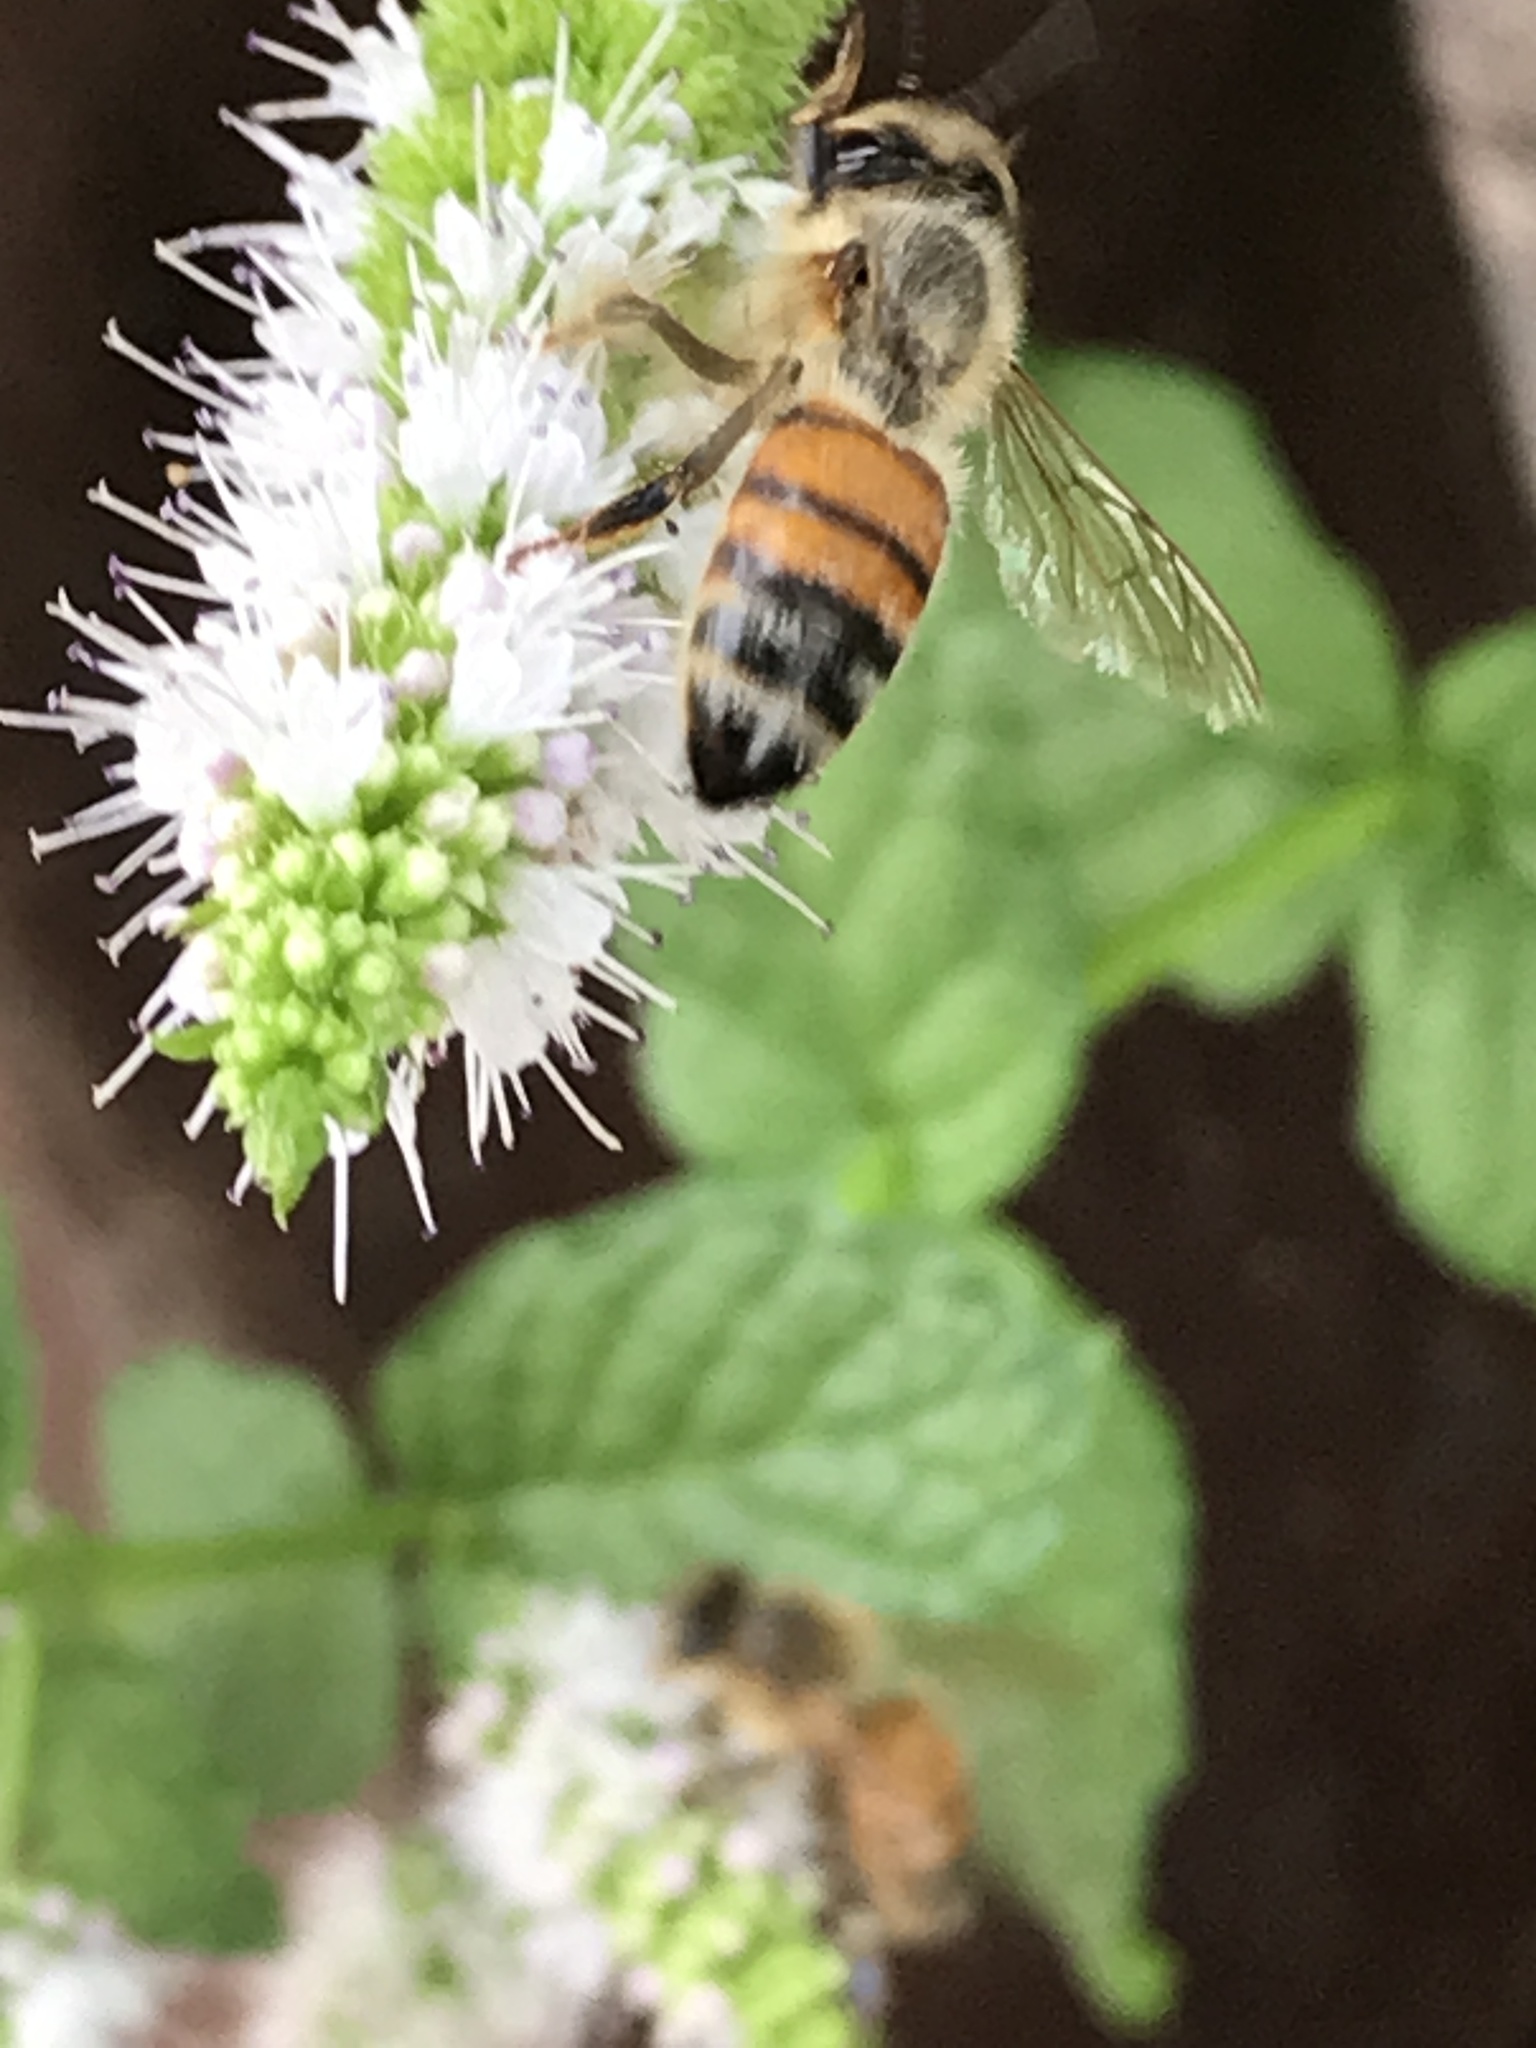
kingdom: Animalia
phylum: Arthropoda
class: Insecta
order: Hymenoptera
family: Apidae
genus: Apis
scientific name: Apis mellifera
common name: Honey bee
